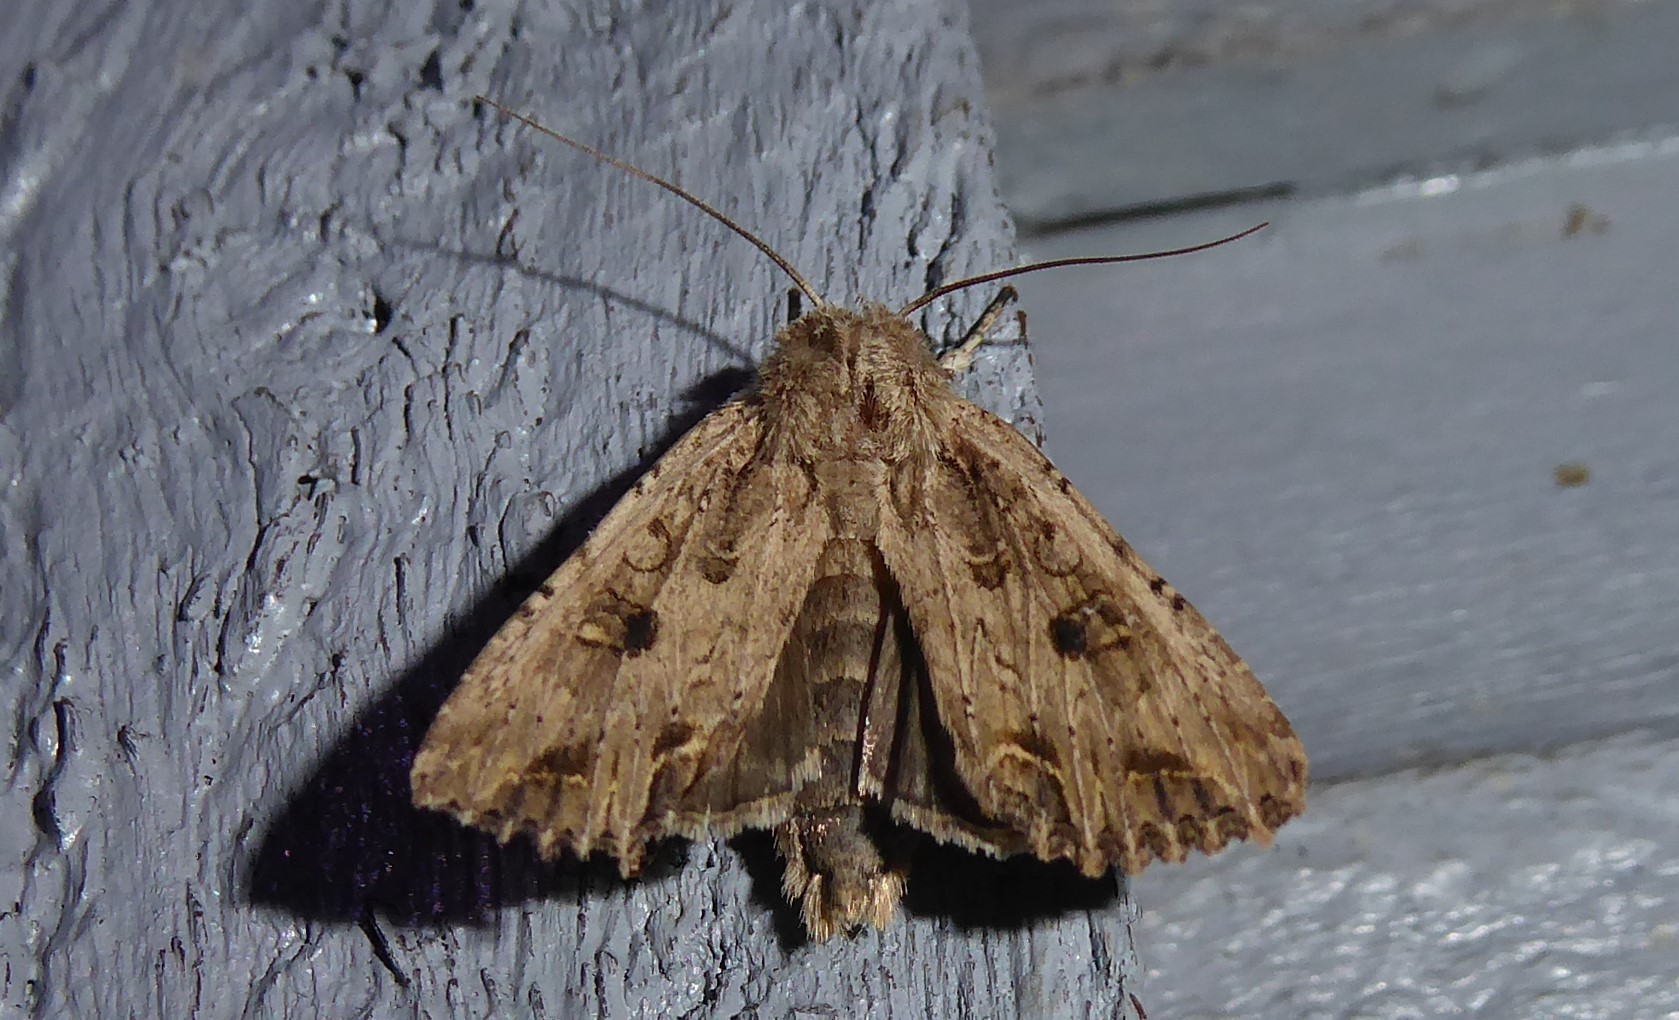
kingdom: Animalia
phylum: Arthropoda
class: Insecta
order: Lepidoptera
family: Noctuidae
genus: Ichneutica
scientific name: Ichneutica lignana
